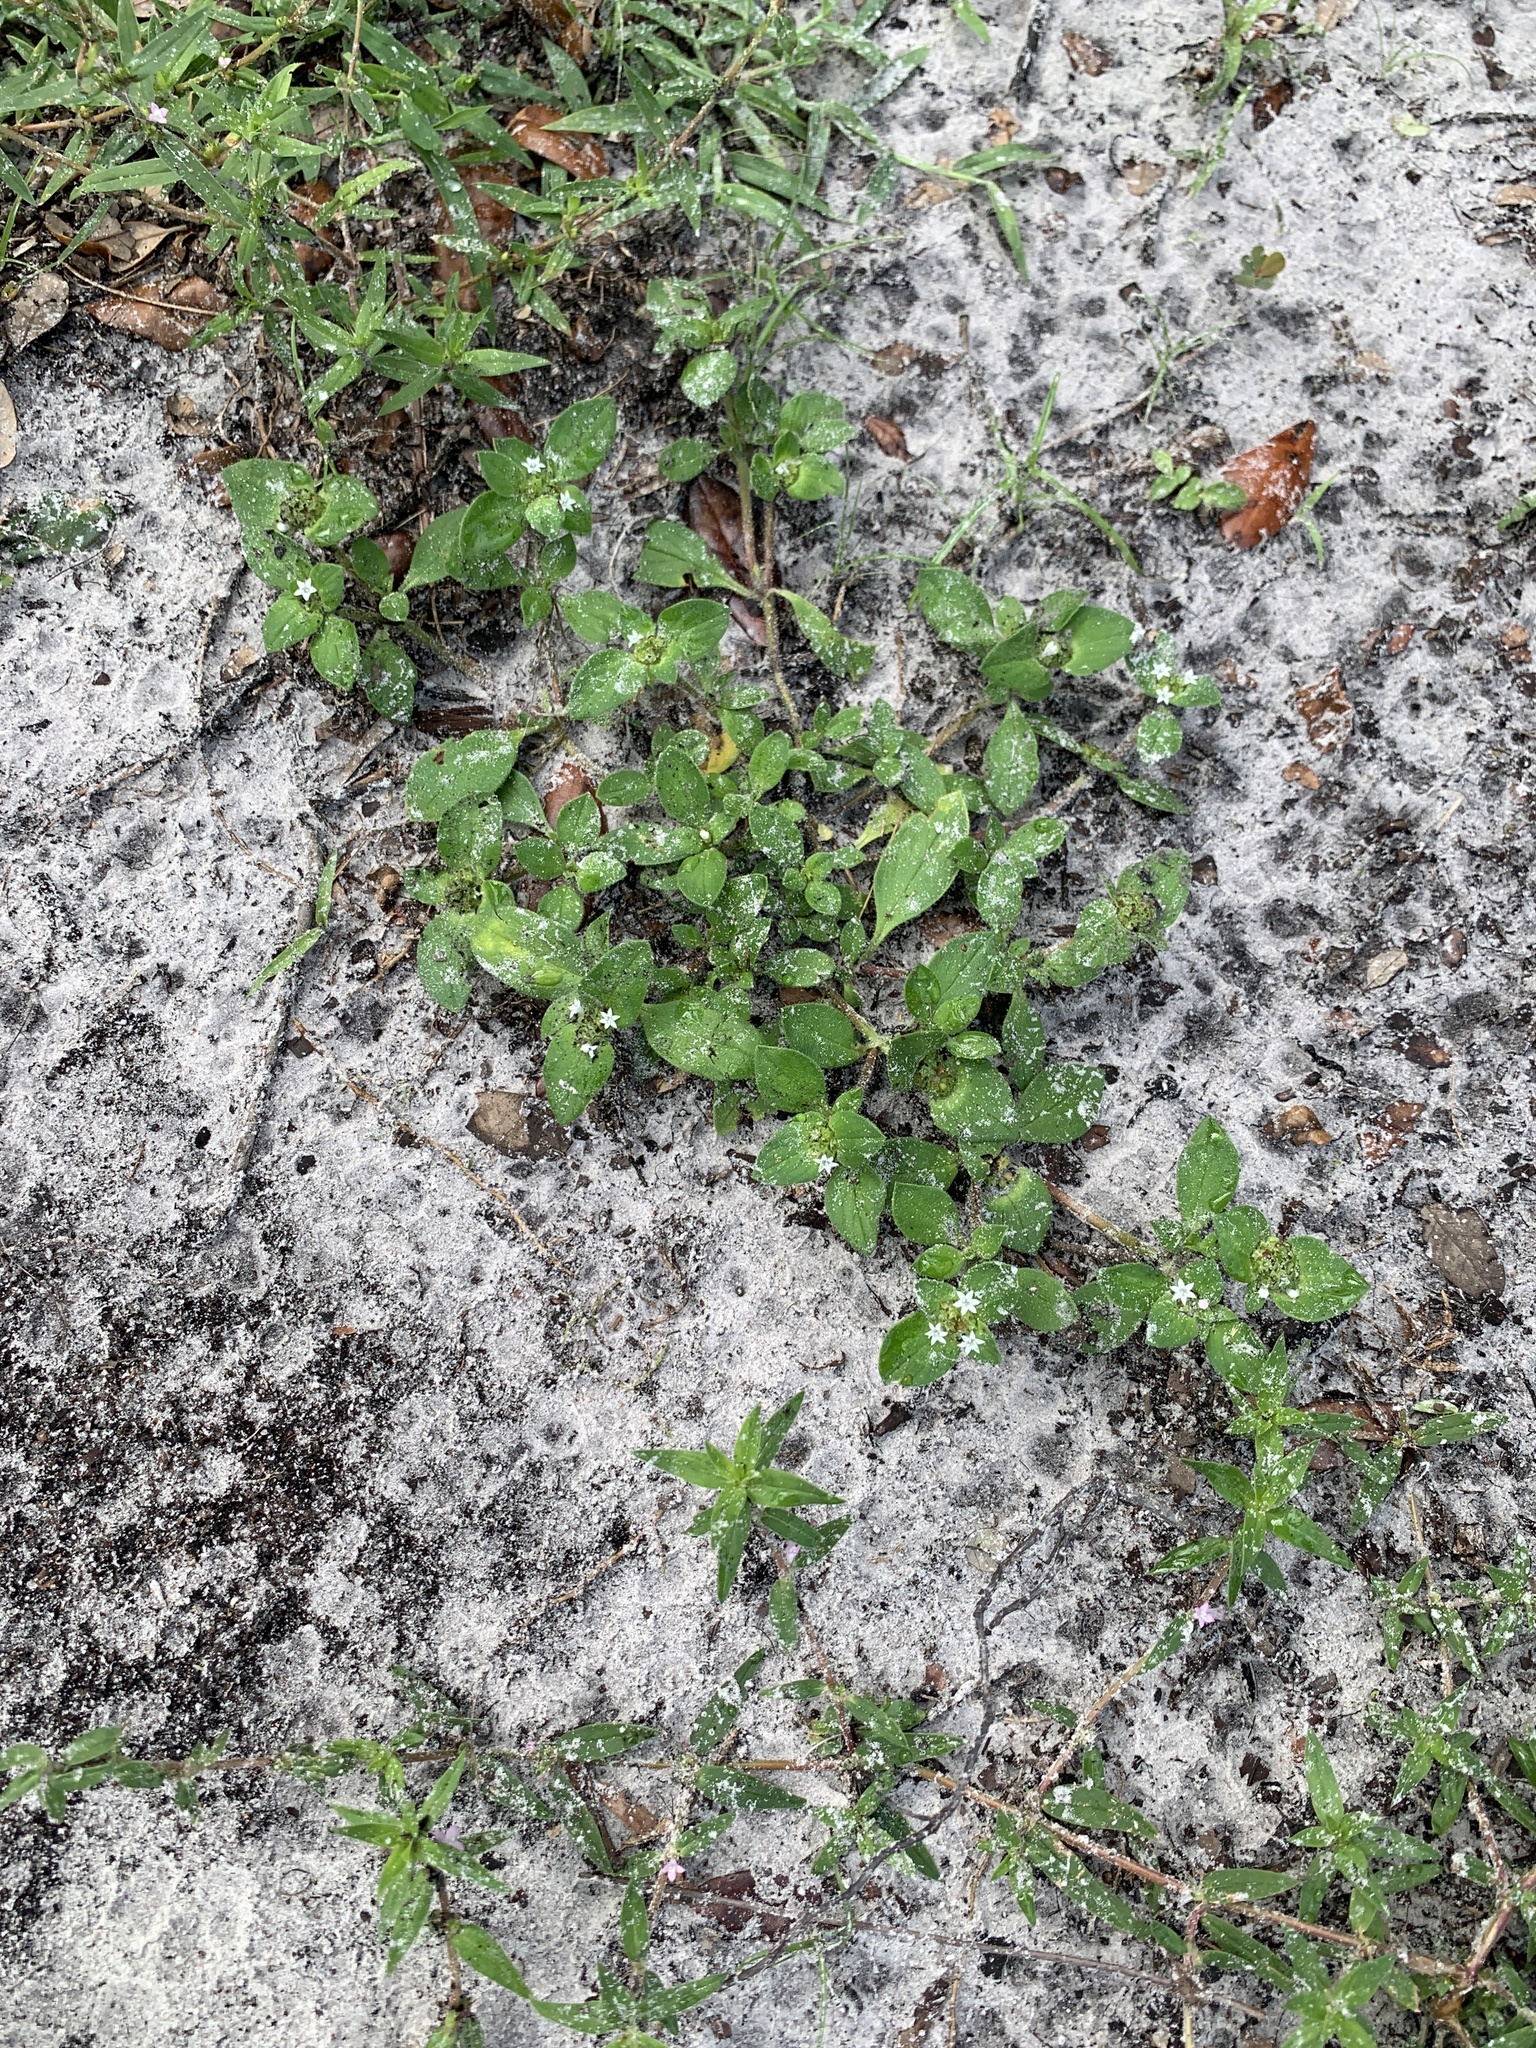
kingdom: Plantae
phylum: Tracheophyta
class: Magnoliopsida
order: Gentianales
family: Rubiaceae
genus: Richardia
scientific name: Richardia scabra
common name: Rough mexican clover
